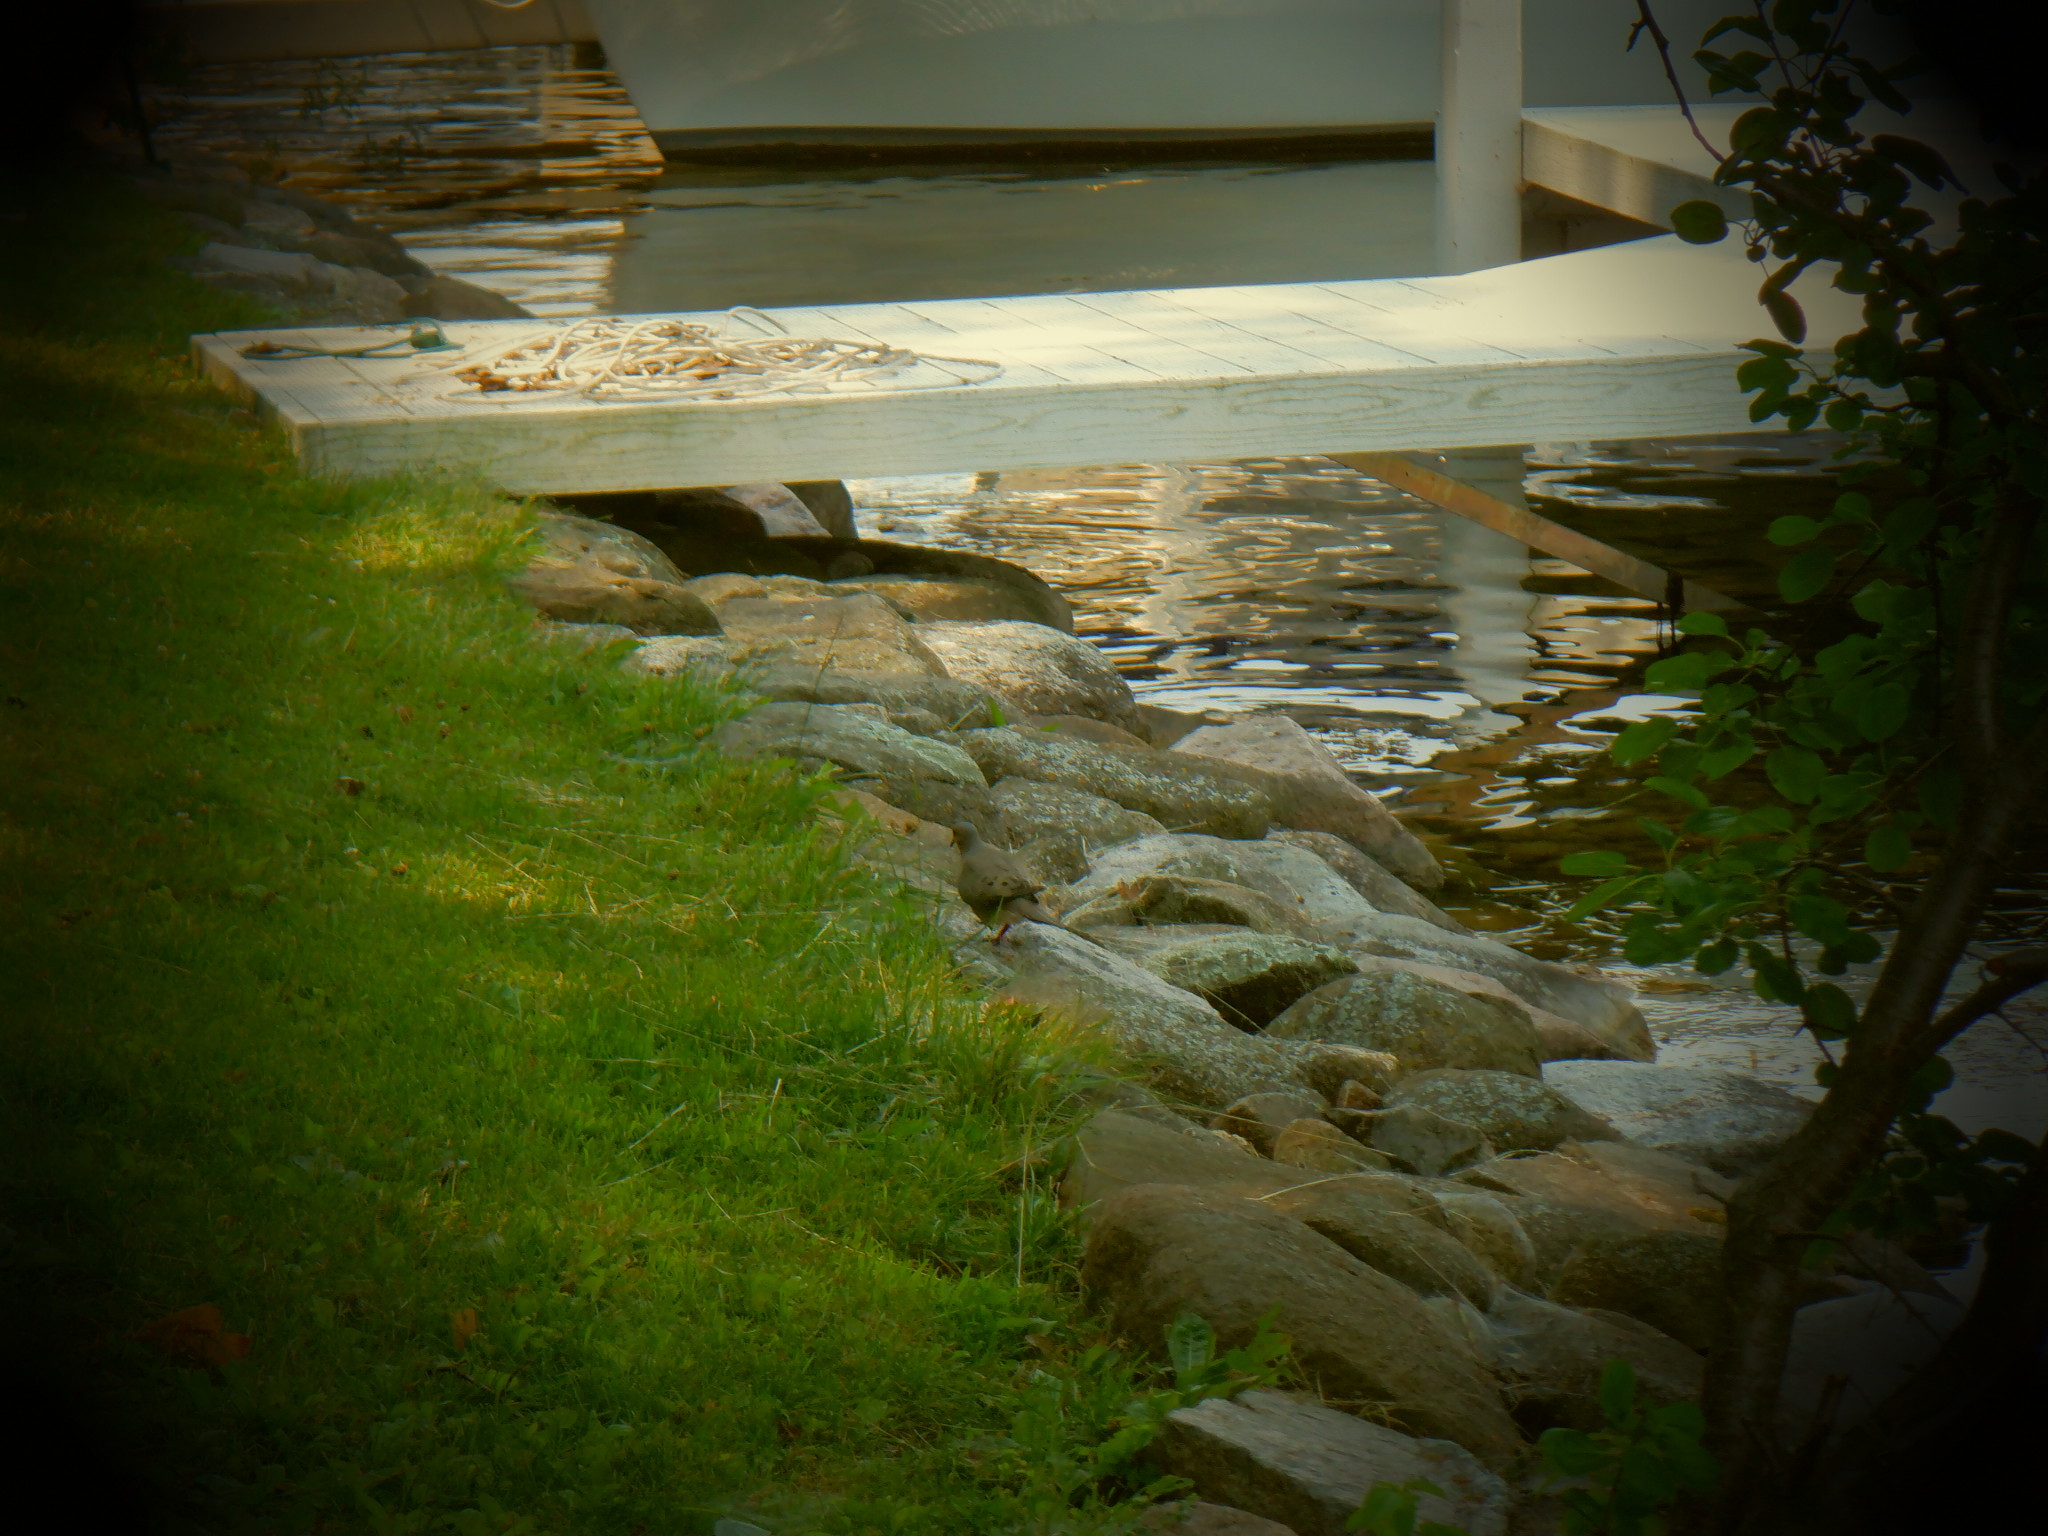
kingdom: Animalia
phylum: Chordata
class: Aves
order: Columbiformes
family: Columbidae
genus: Zenaida
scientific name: Zenaida macroura
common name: Mourning dove
